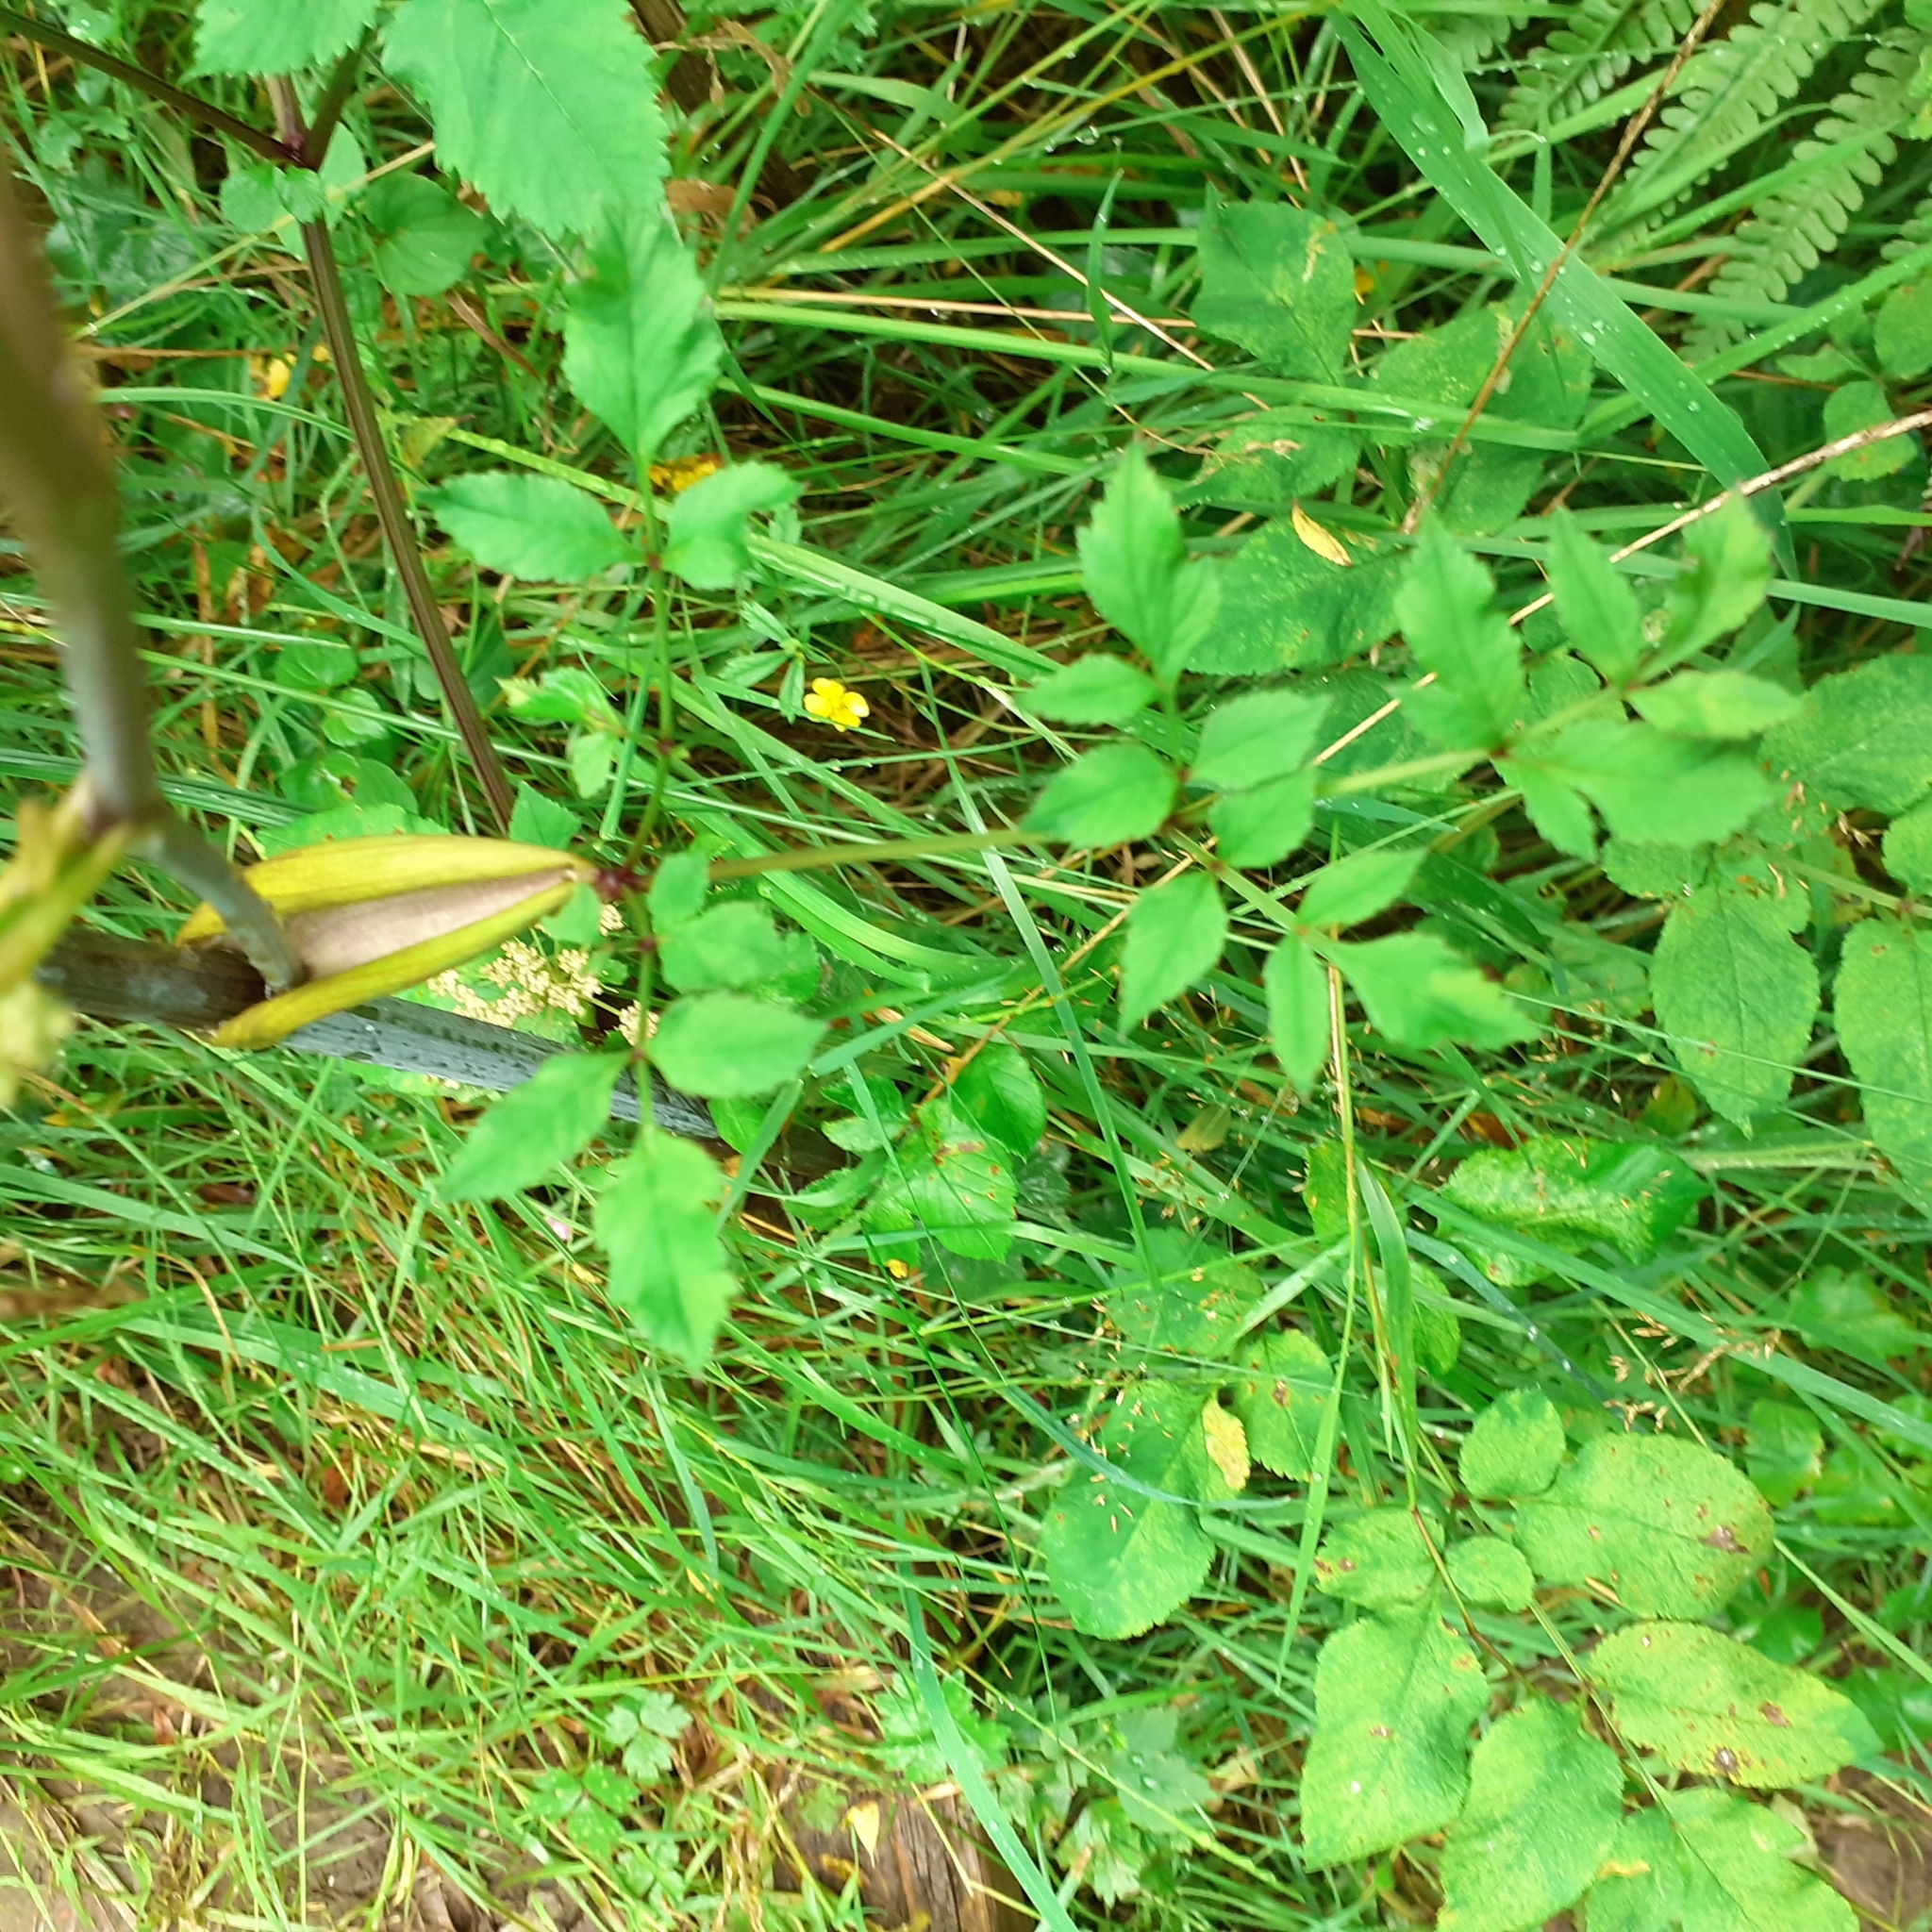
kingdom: Plantae
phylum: Tracheophyta
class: Magnoliopsida
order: Apiales
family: Apiaceae
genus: Angelica
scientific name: Angelica sylvestris
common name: Wild angelica
